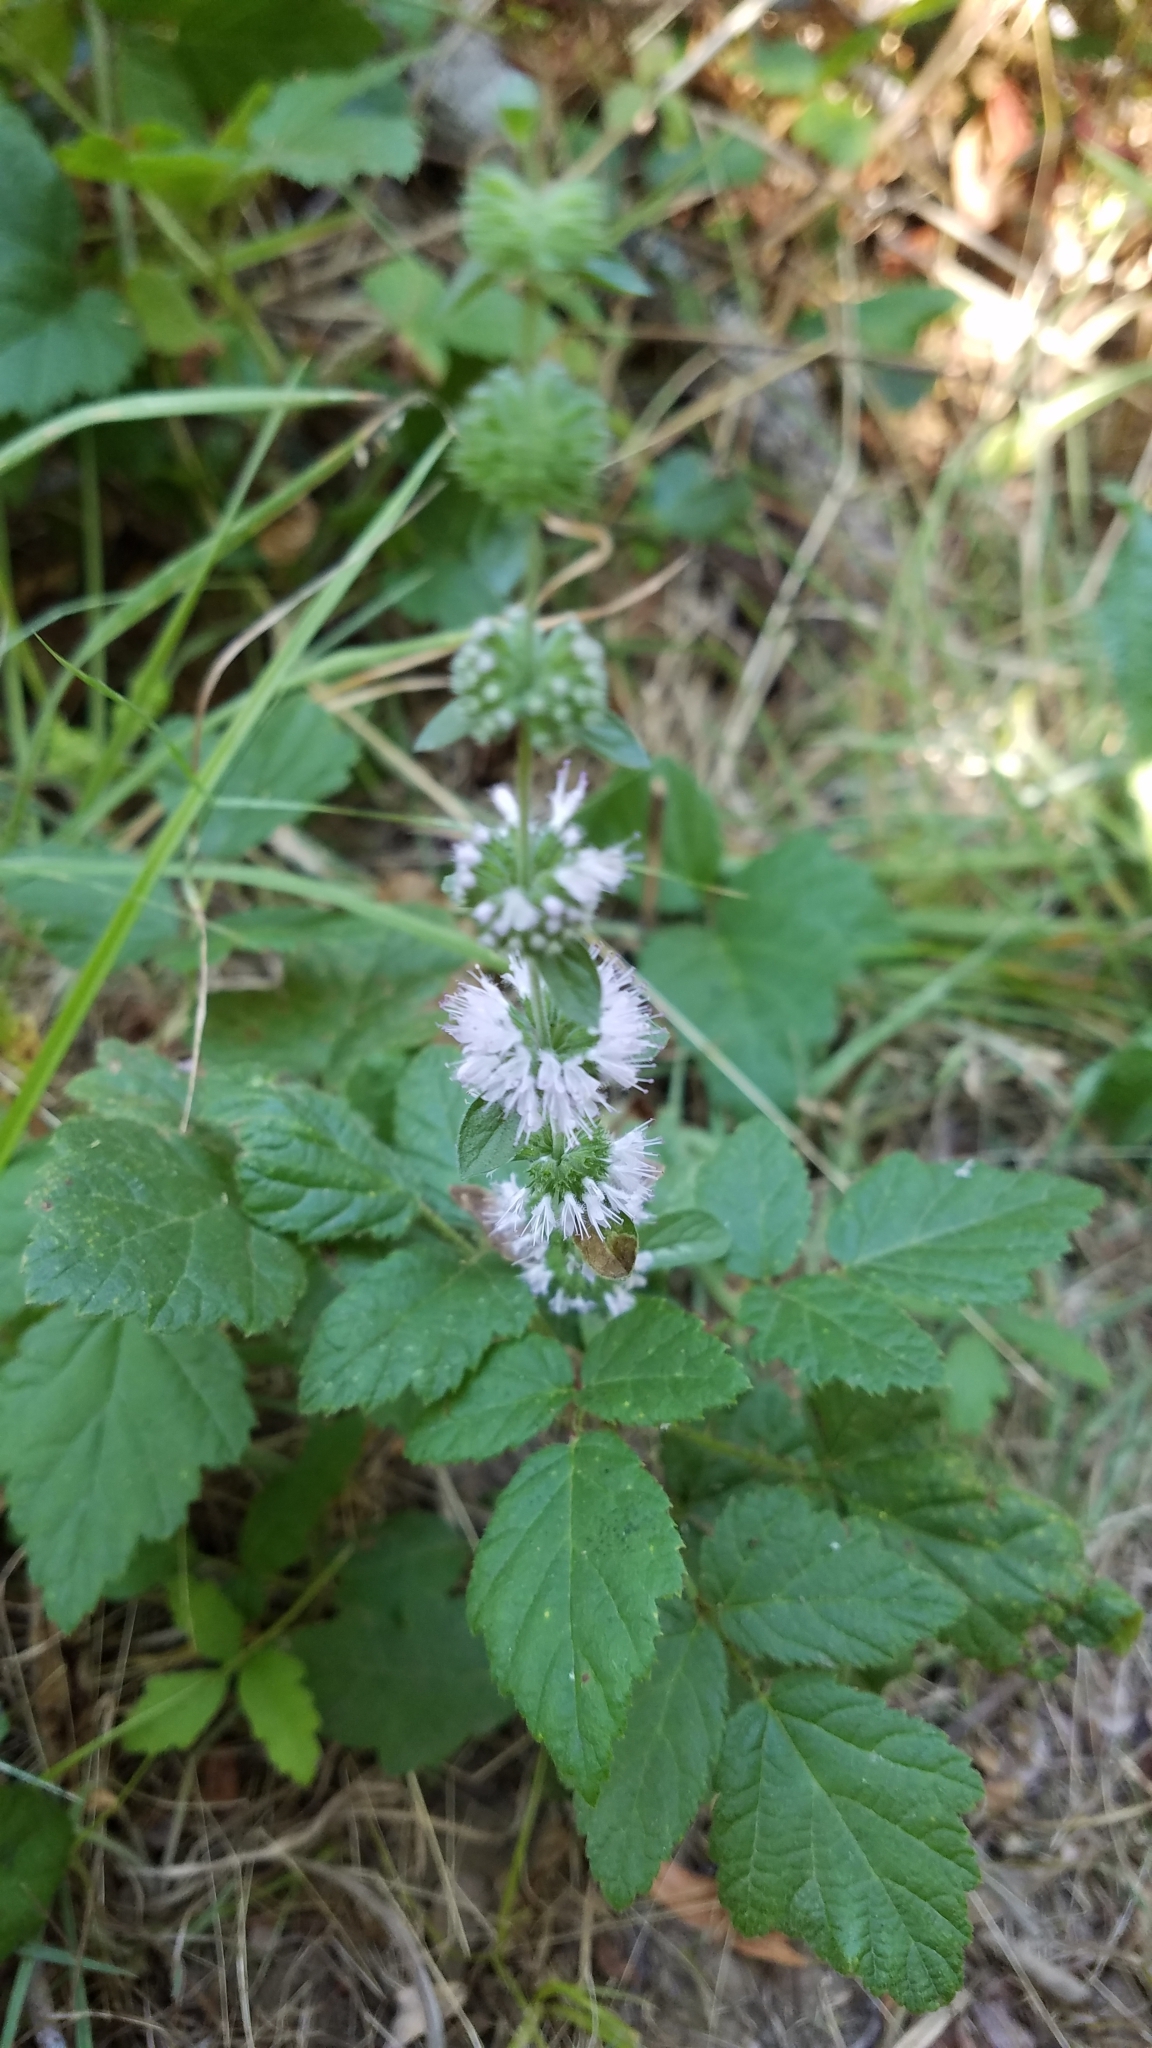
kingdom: Plantae
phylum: Tracheophyta
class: Magnoliopsida
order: Lamiales
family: Lamiaceae
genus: Mentha
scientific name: Mentha pulegium
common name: Pennyroyal
